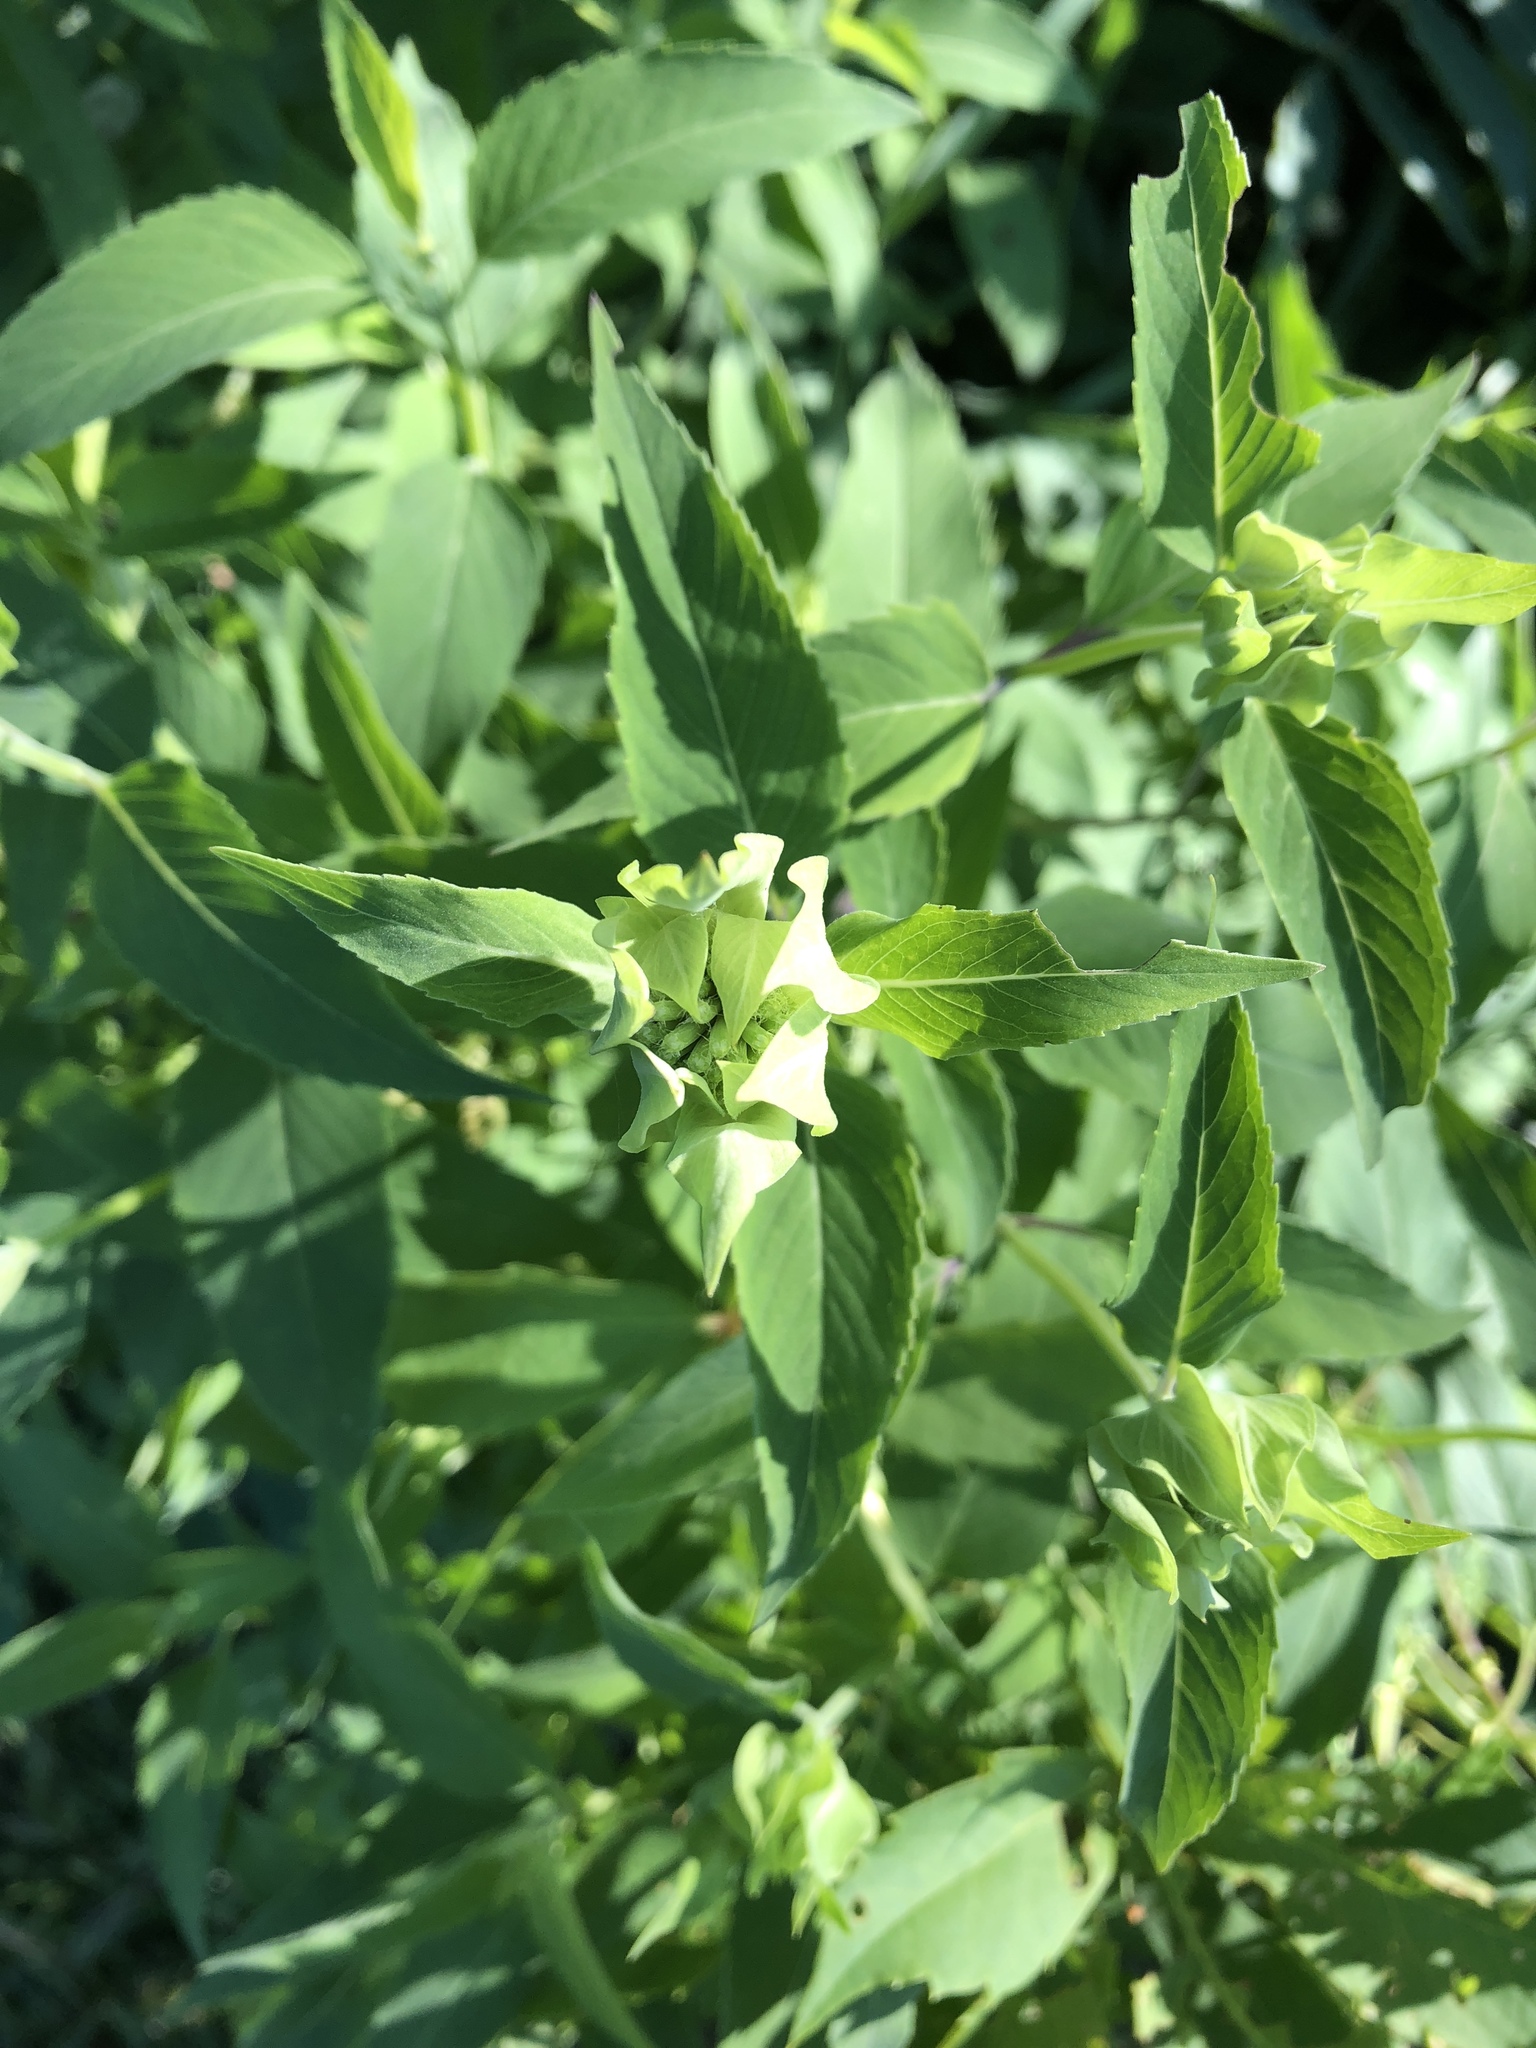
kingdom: Plantae
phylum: Tracheophyta
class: Magnoliopsida
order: Lamiales
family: Lamiaceae
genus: Monarda
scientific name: Monarda fistulosa
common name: Purple beebalm
